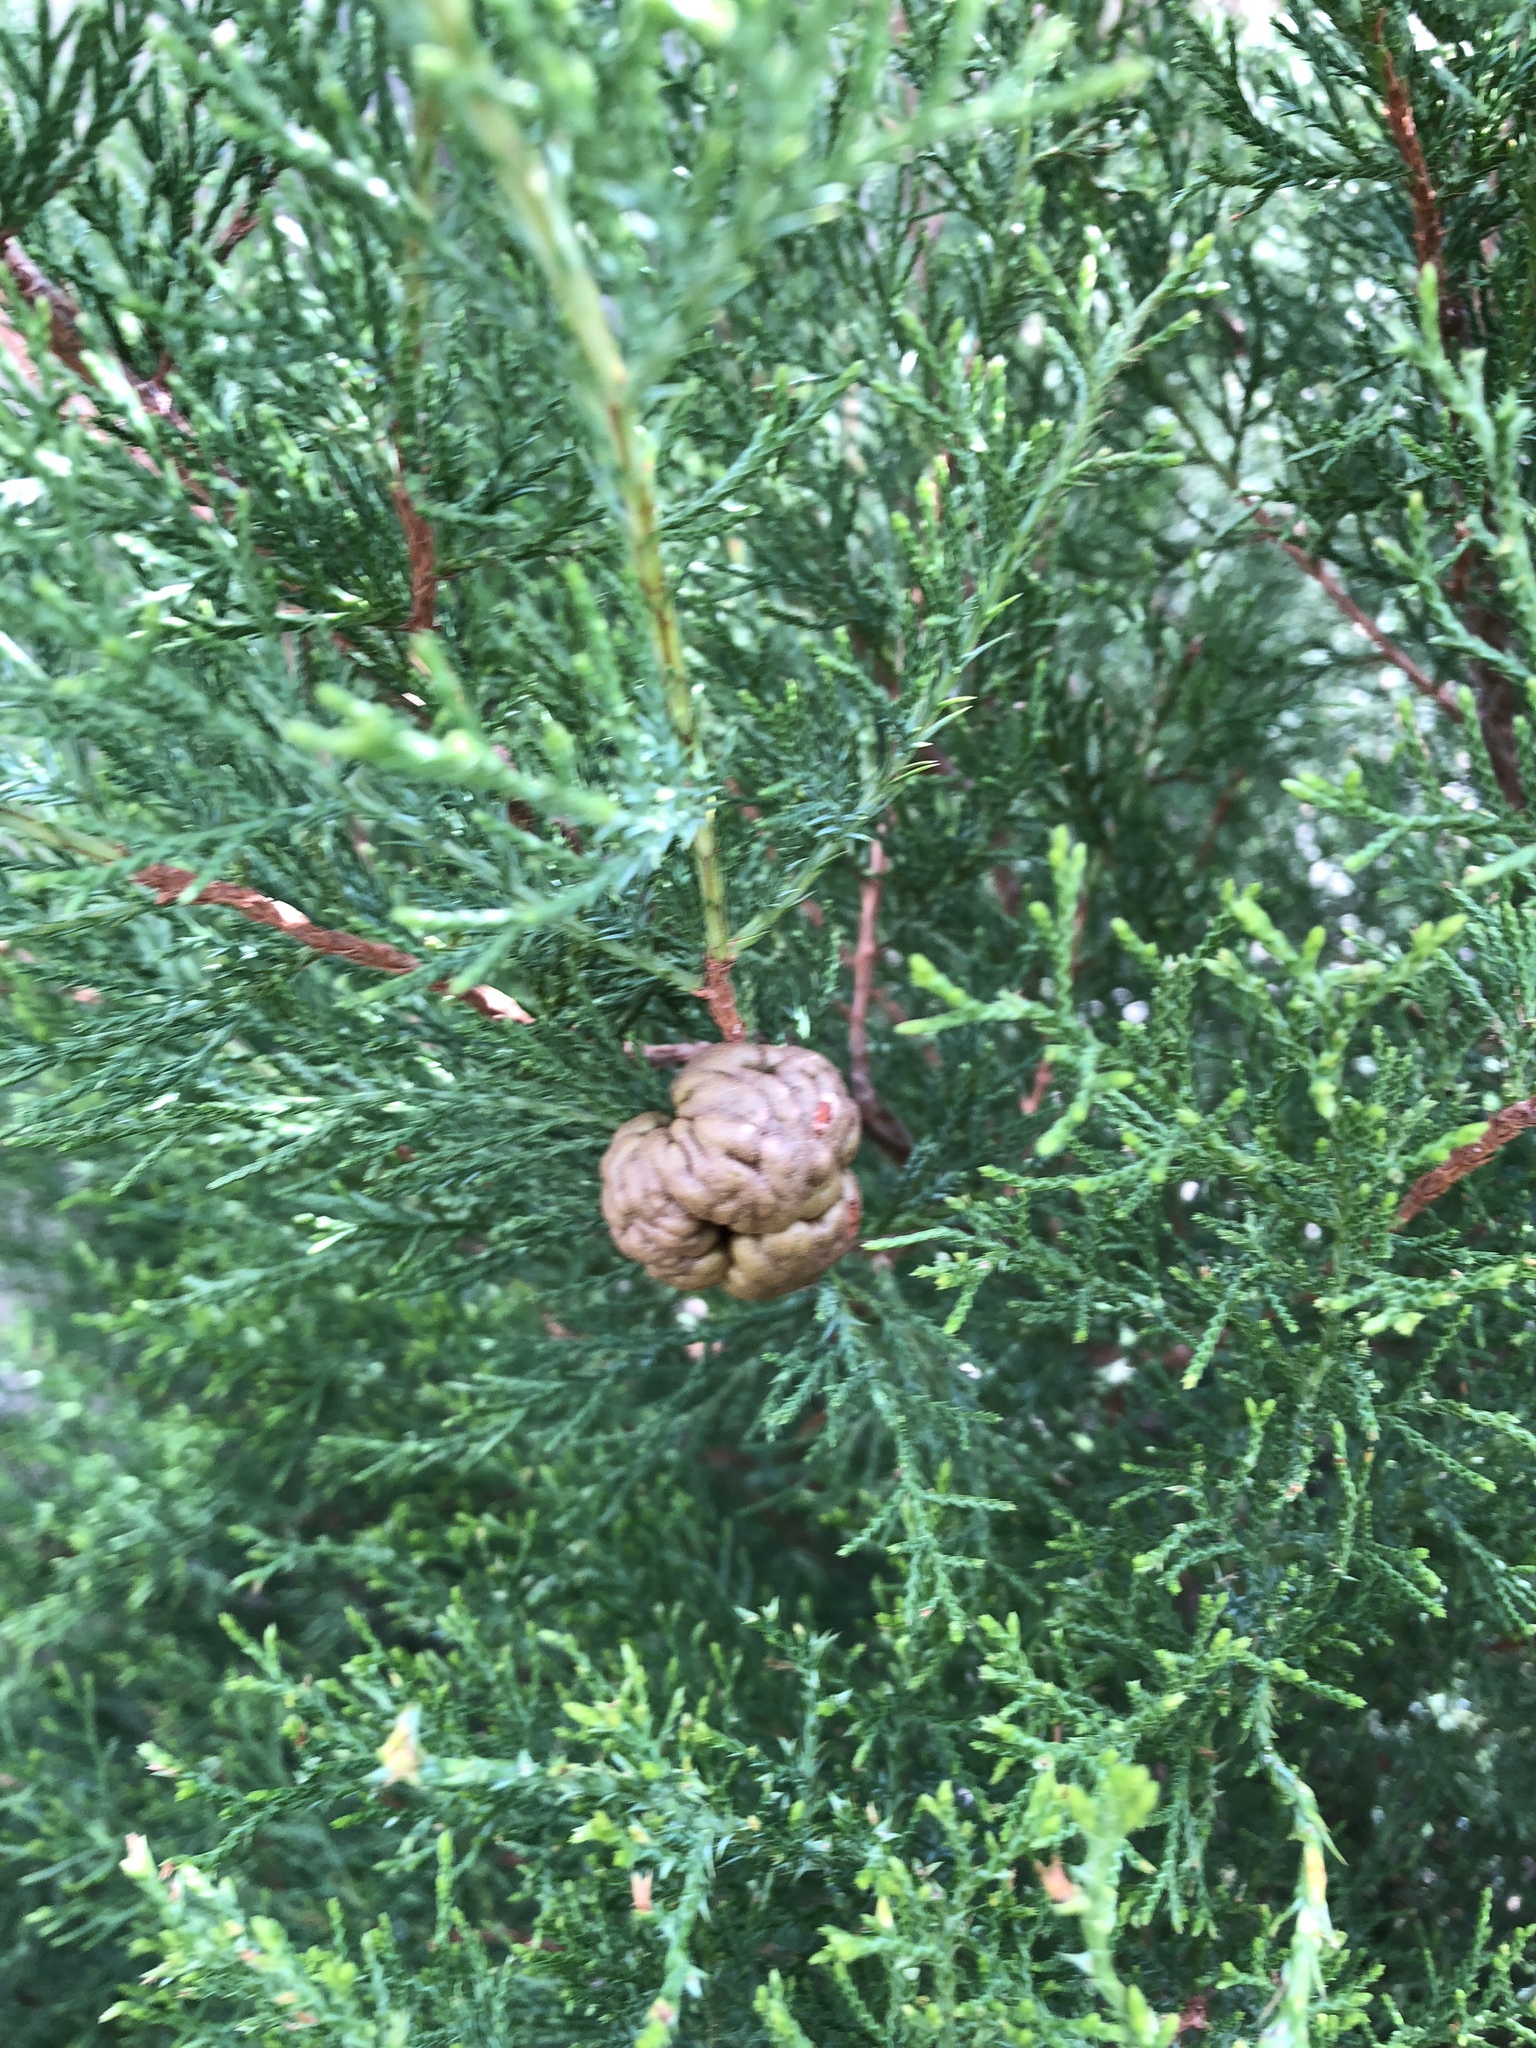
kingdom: Fungi
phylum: Basidiomycota
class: Pucciniomycetes
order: Pucciniales
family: Gymnosporangiaceae
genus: Gymnosporangium
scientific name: Gymnosporangium juniperi-virginianae
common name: Juniper-apple rust
